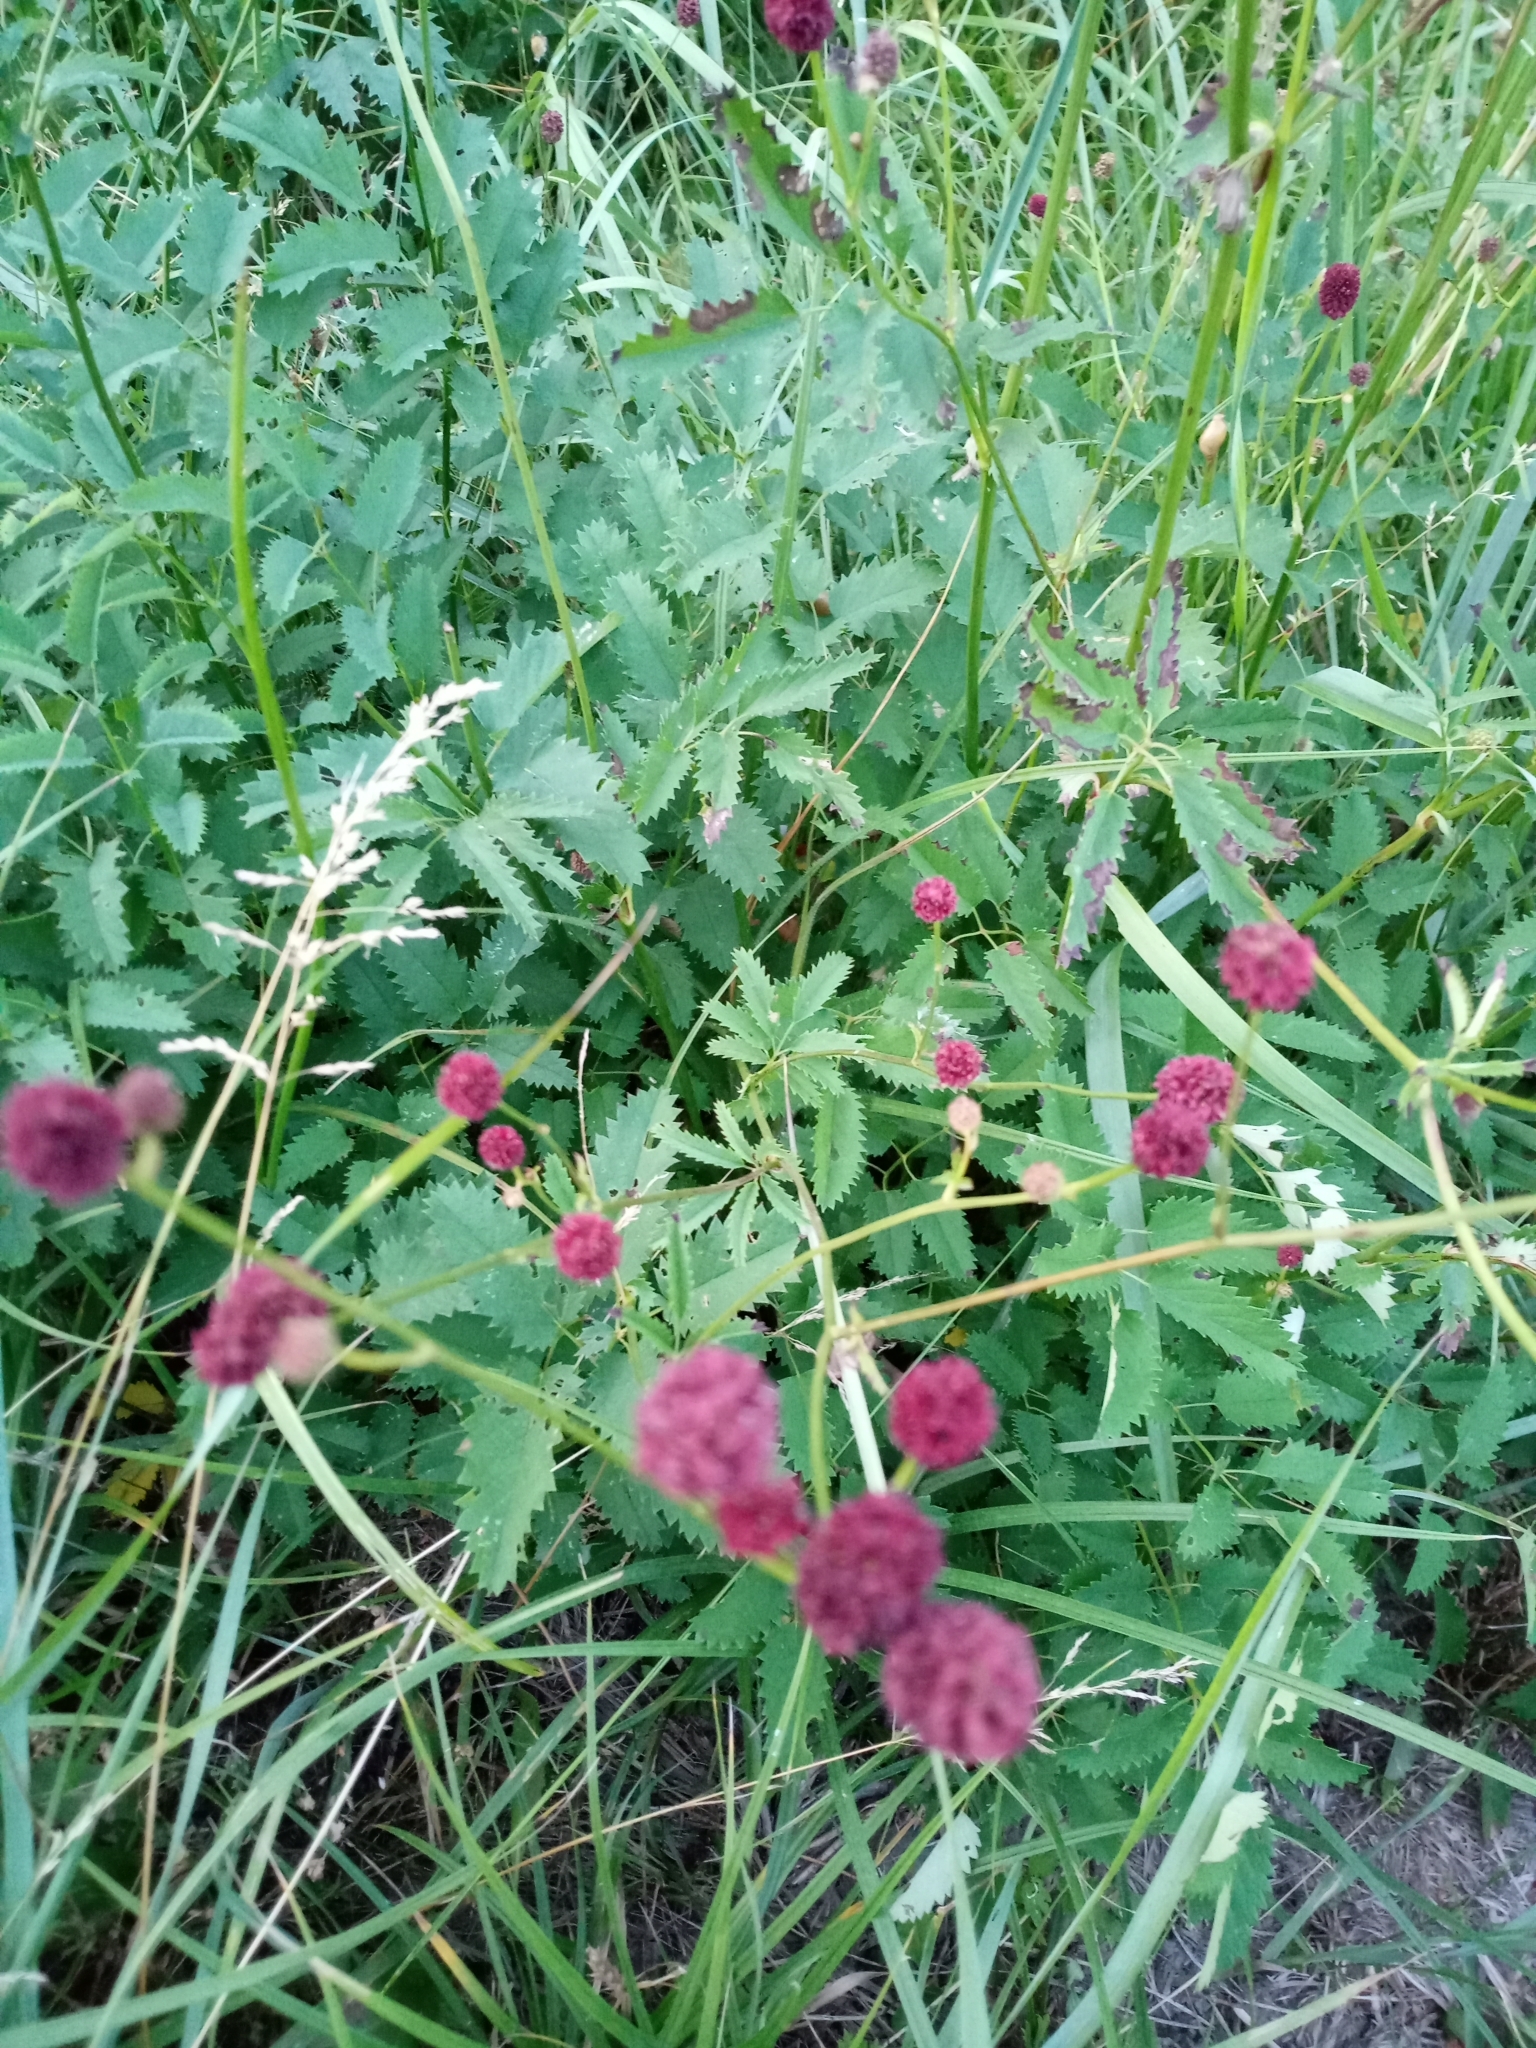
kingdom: Plantae
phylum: Tracheophyta
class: Magnoliopsida
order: Rosales
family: Rosaceae
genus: Sanguisorba
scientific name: Sanguisorba officinalis
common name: Great burnet
